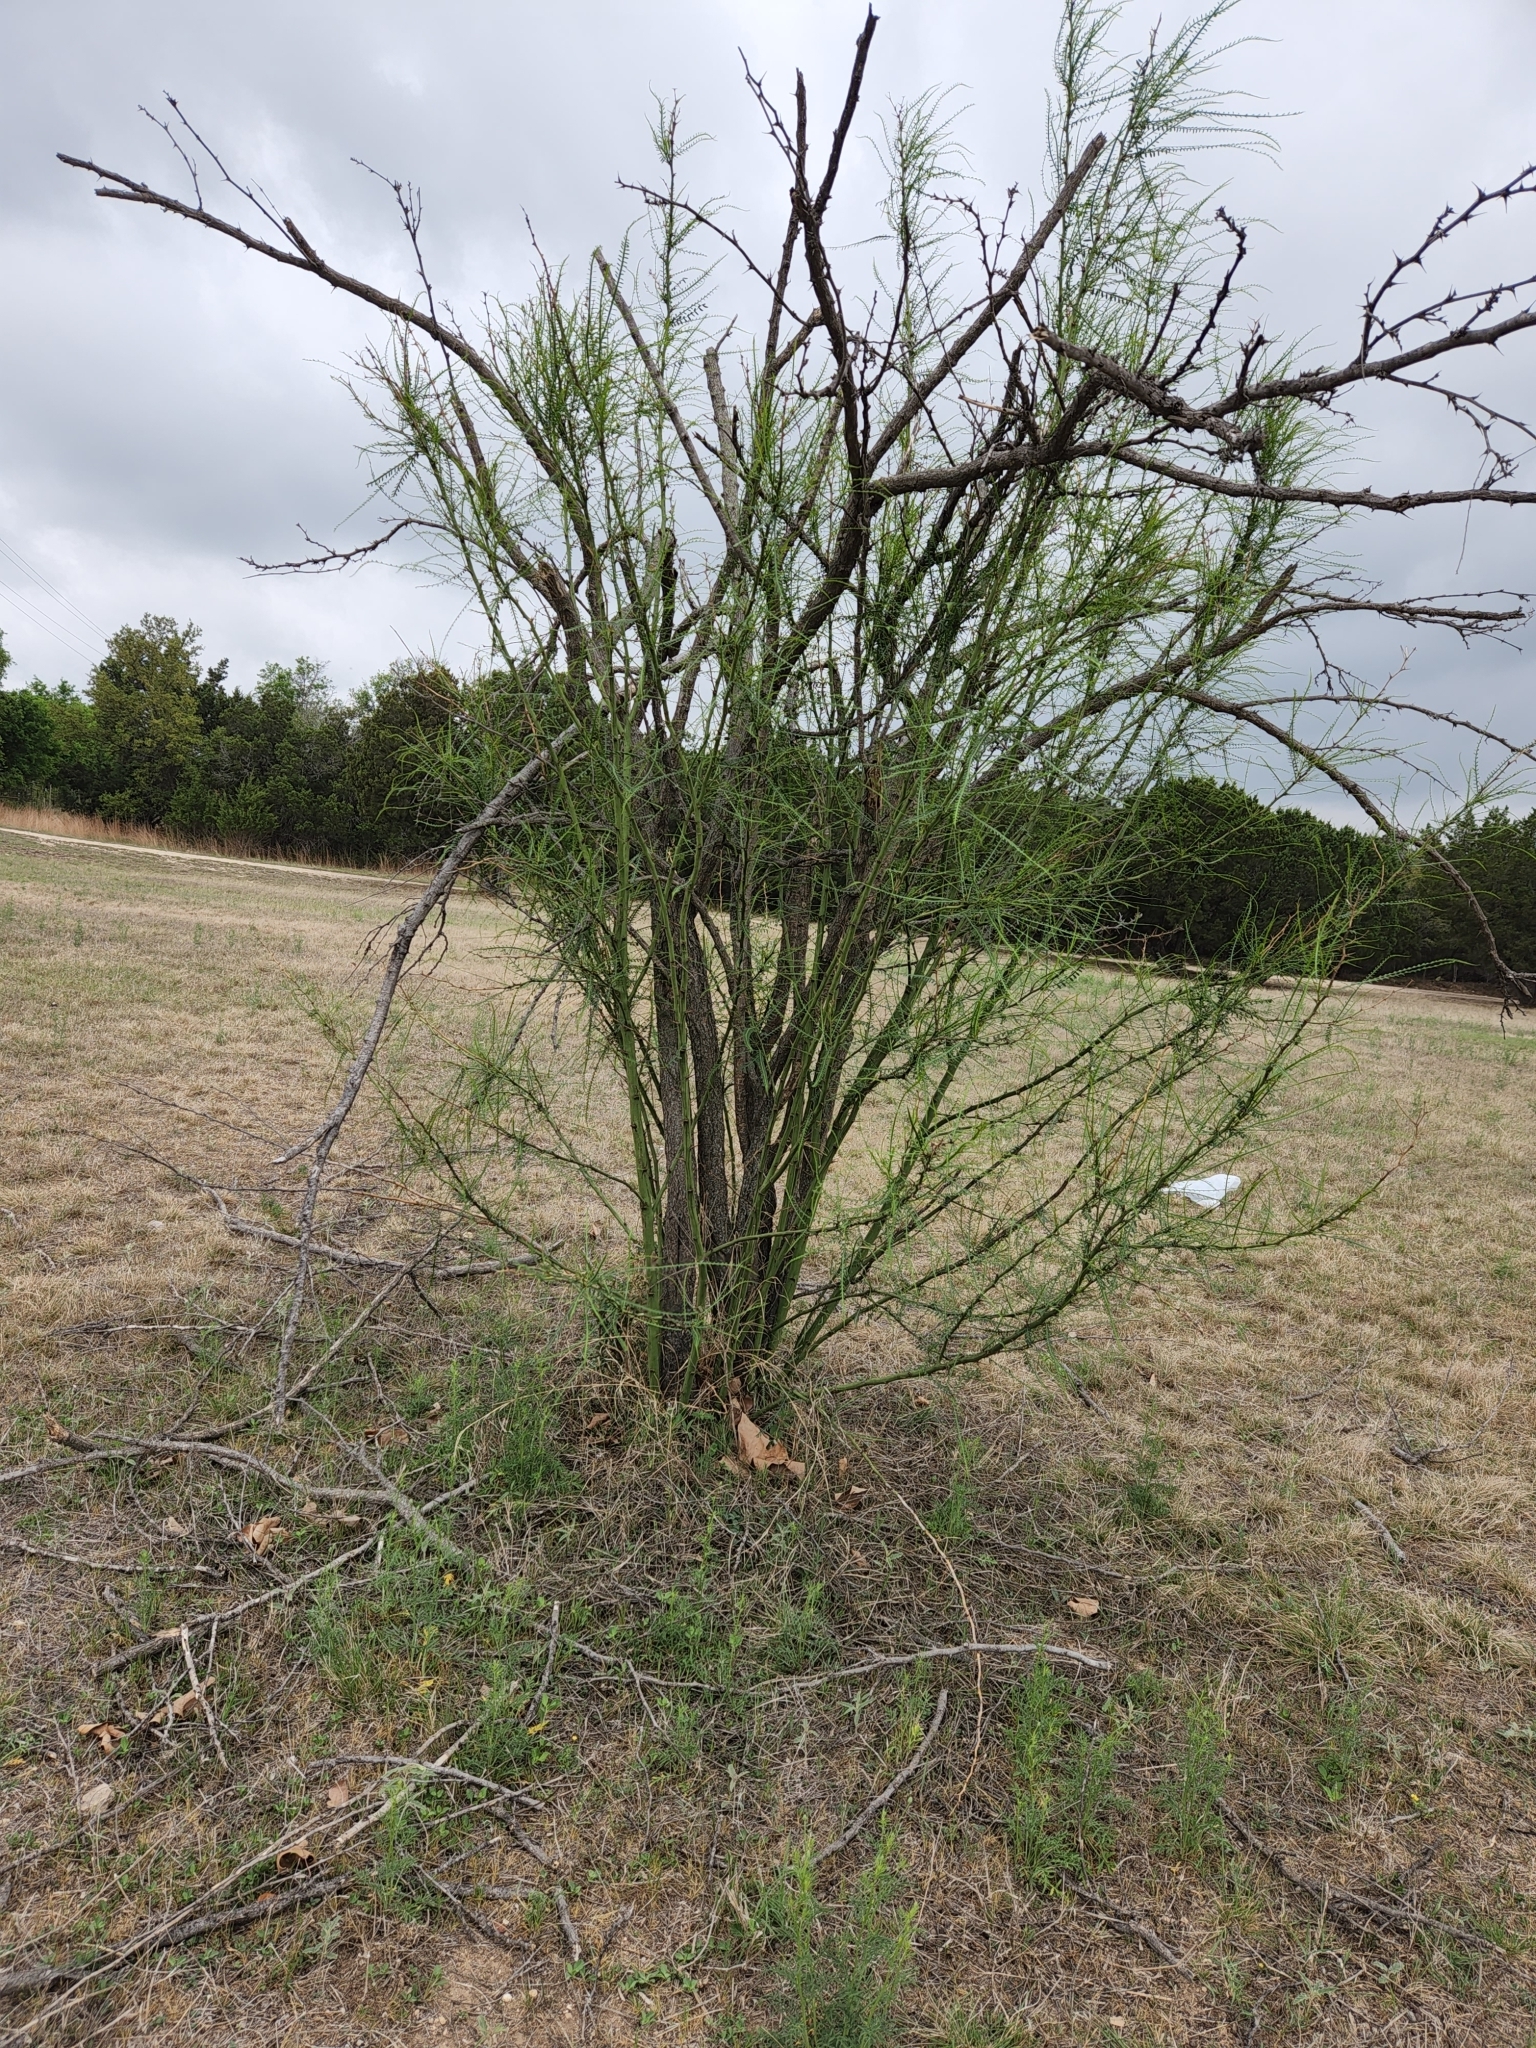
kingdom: Plantae
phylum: Tracheophyta
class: Magnoliopsida
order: Fabales
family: Fabaceae
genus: Parkinsonia
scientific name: Parkinsonia aculeata
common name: Jerusalem thorn
